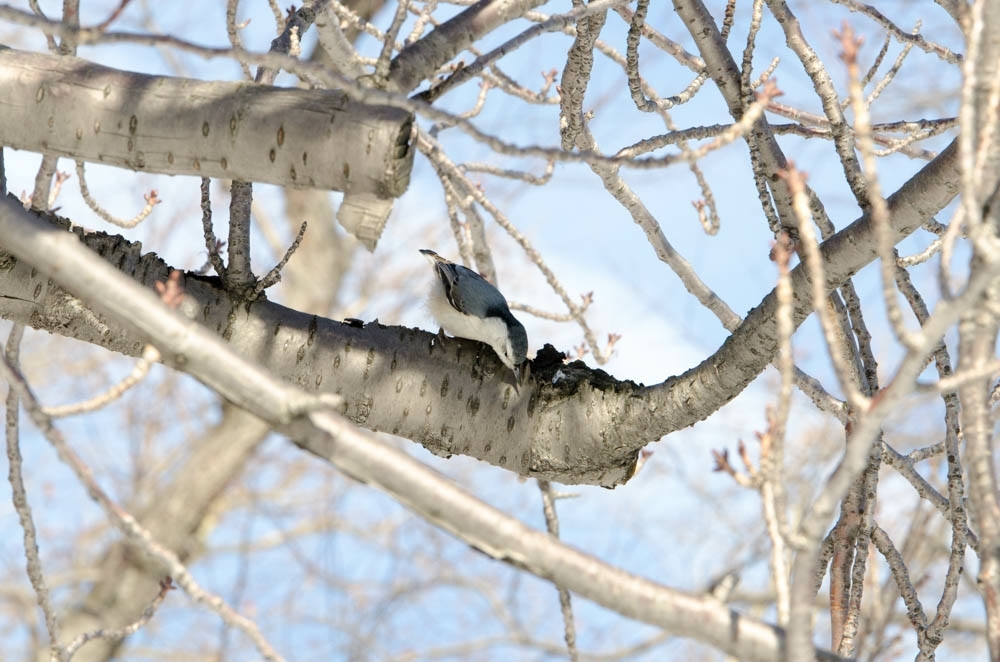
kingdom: Animalia
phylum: Chordata
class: Aves
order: Passeriformes
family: Sittidae
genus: Sitta
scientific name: Sitta carolinensis
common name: White-breasted nuthatch
